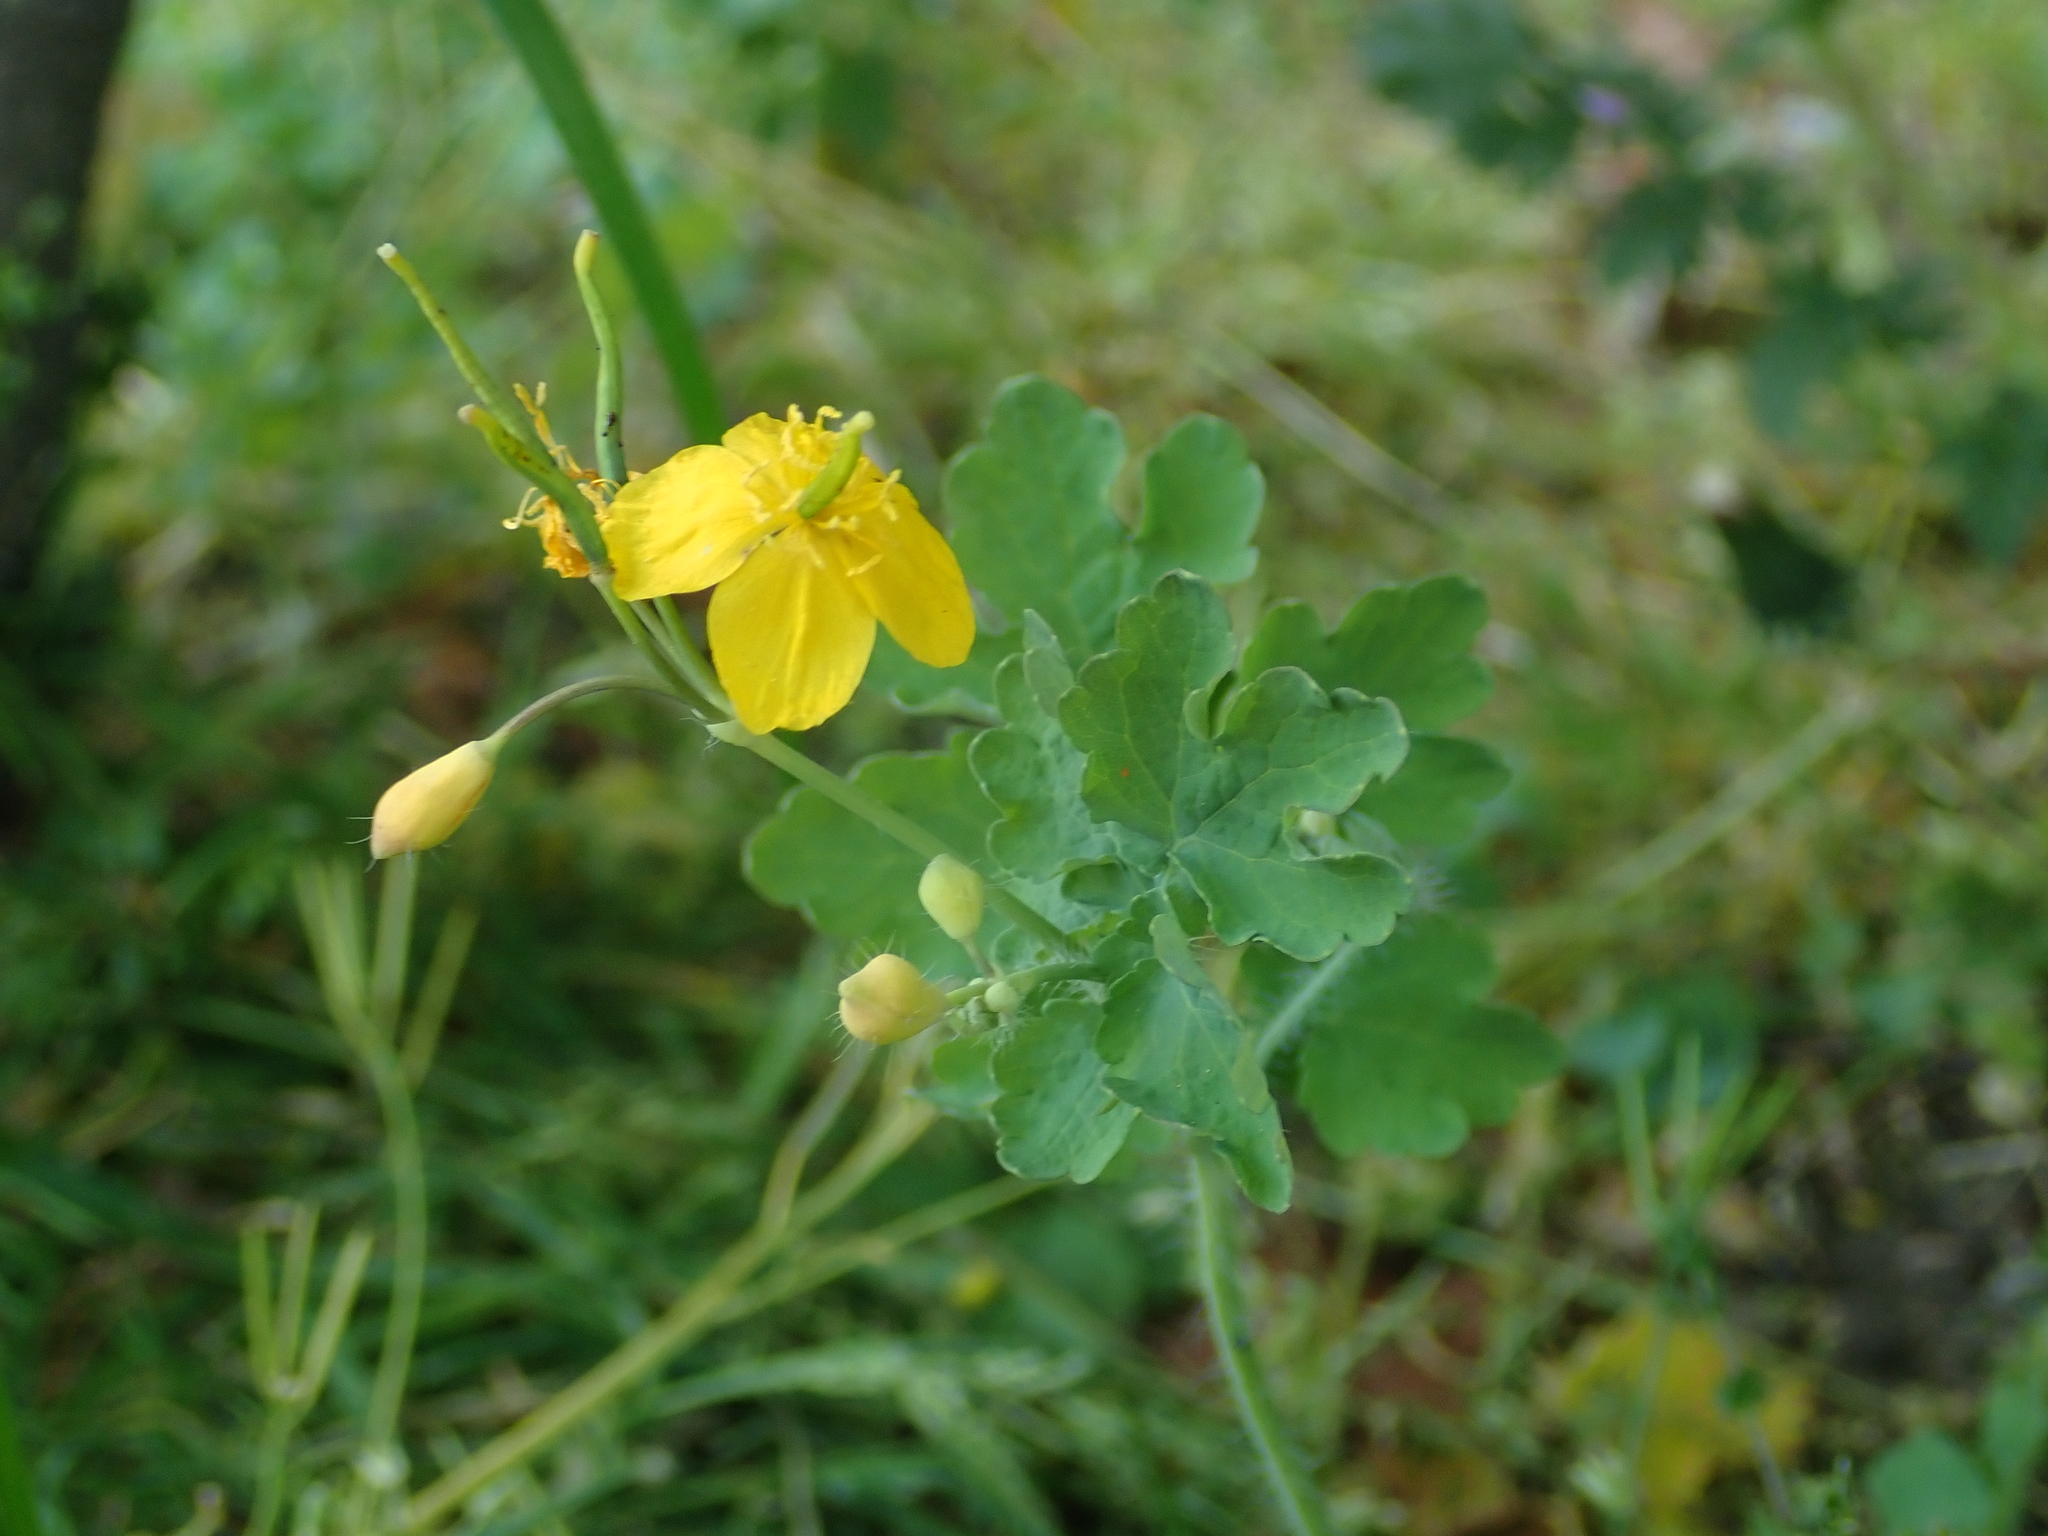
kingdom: Plantae
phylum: Tracheophyta
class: Magnoliopsida
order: Ranunculales
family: Papaveraceae
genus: Chelidonium
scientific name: Chelidonium majus
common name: Greater celandine
